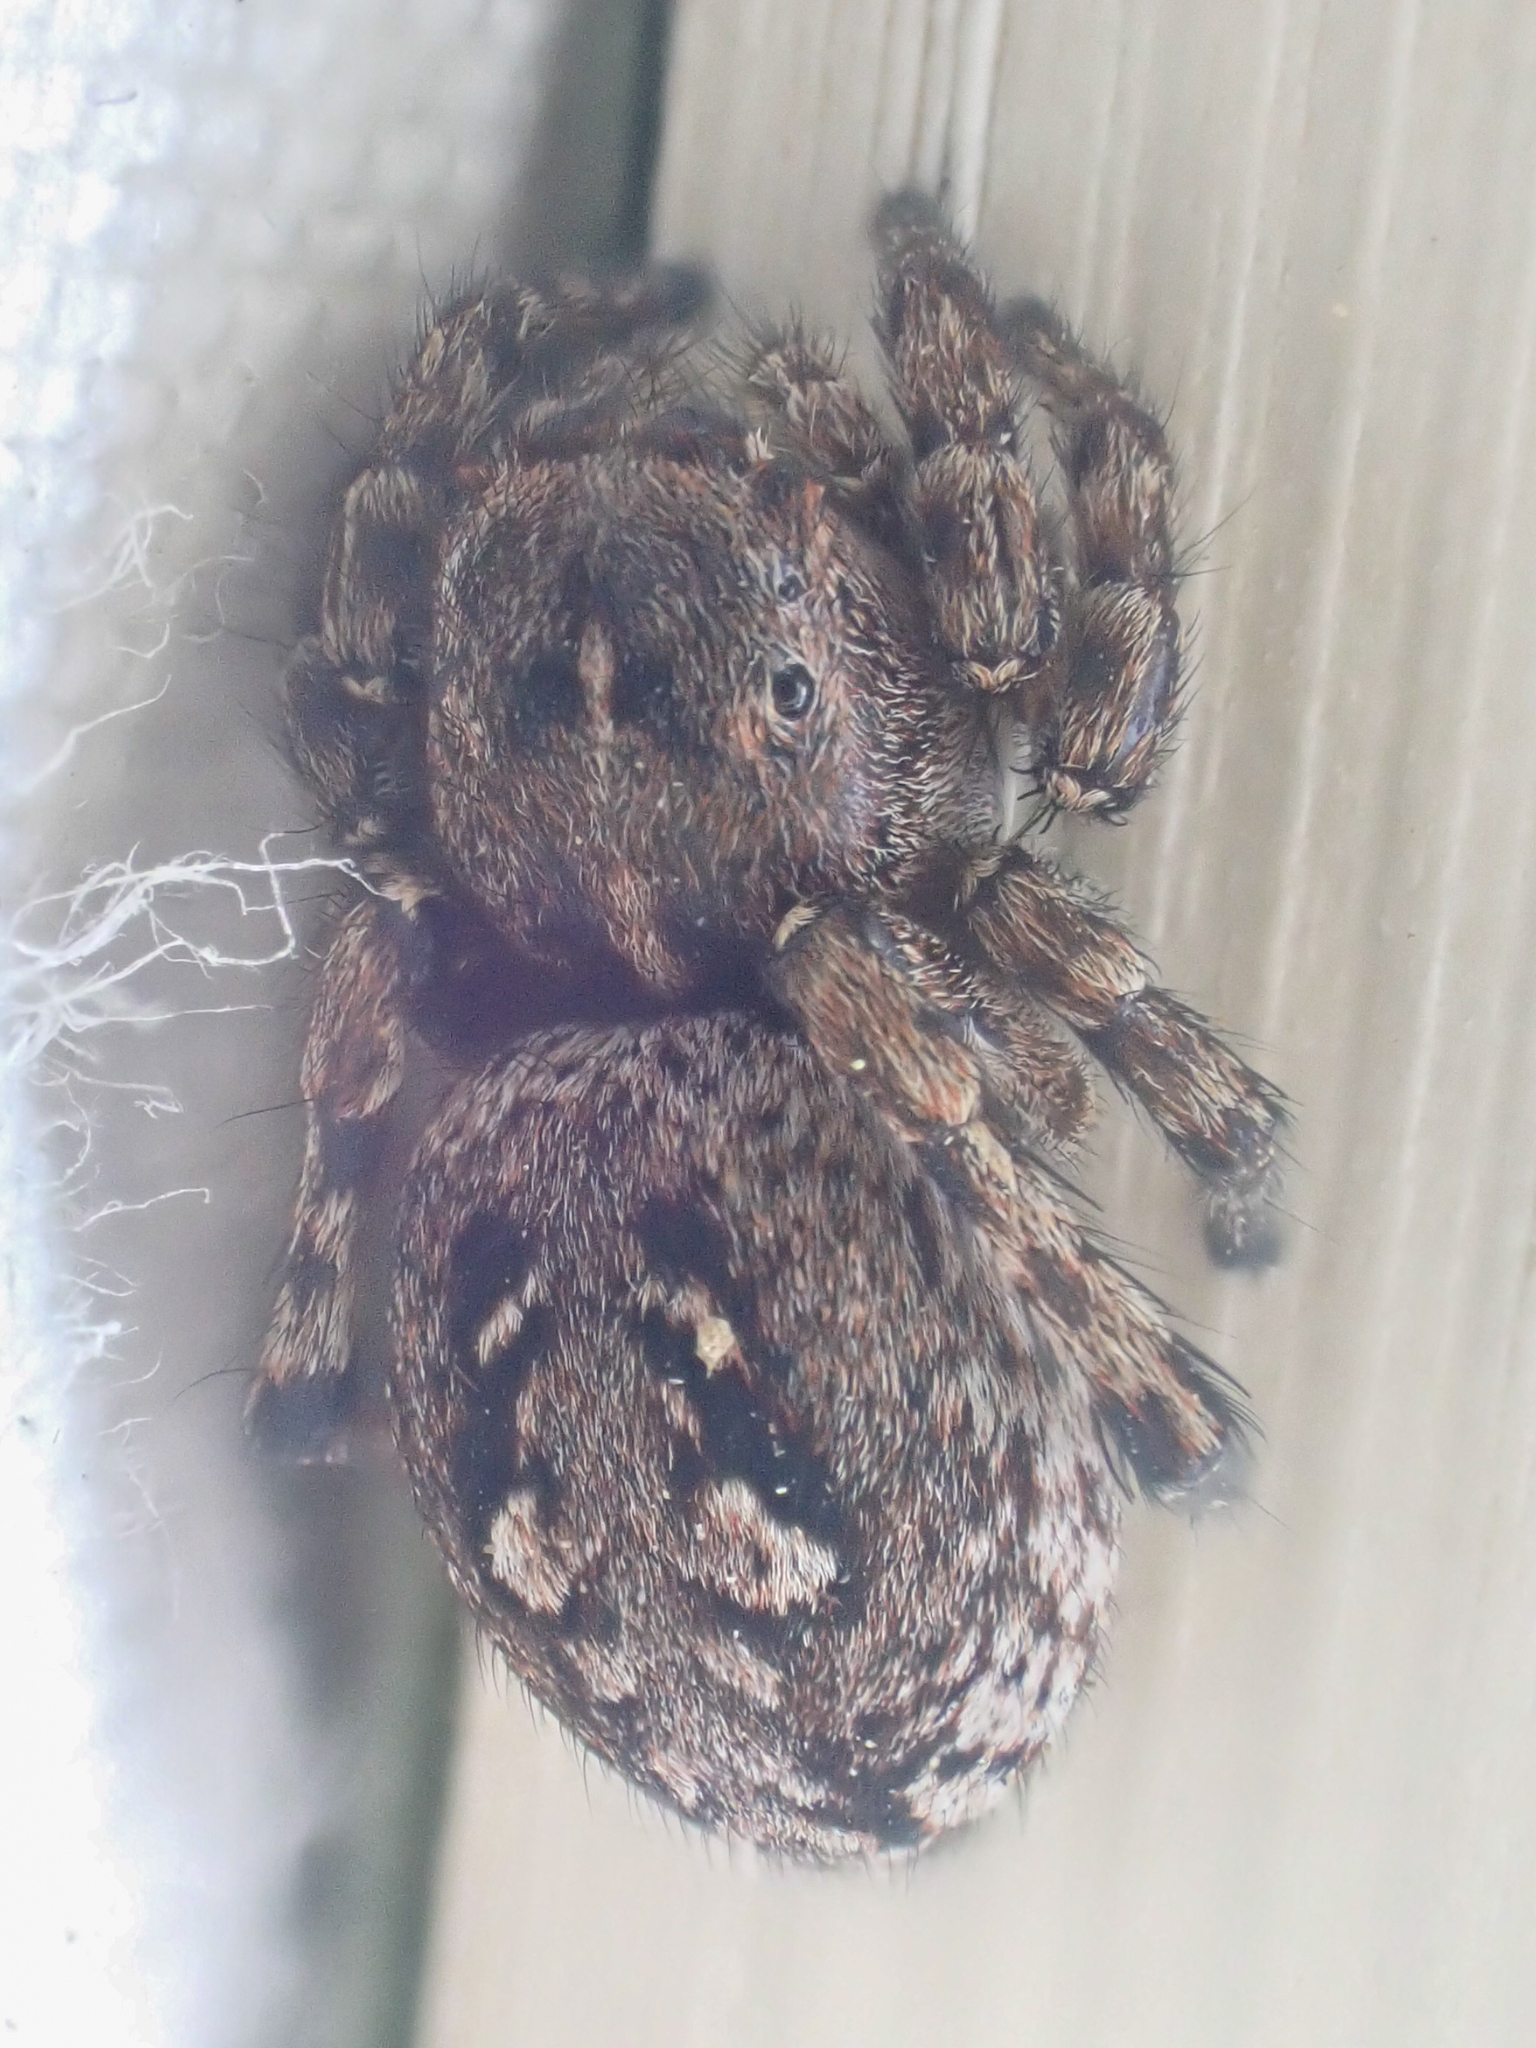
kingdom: Animalia
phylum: Arthropoda
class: Arachnida
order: Araneae
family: Salticidae
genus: Sittisax
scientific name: Sittisax ranieri
